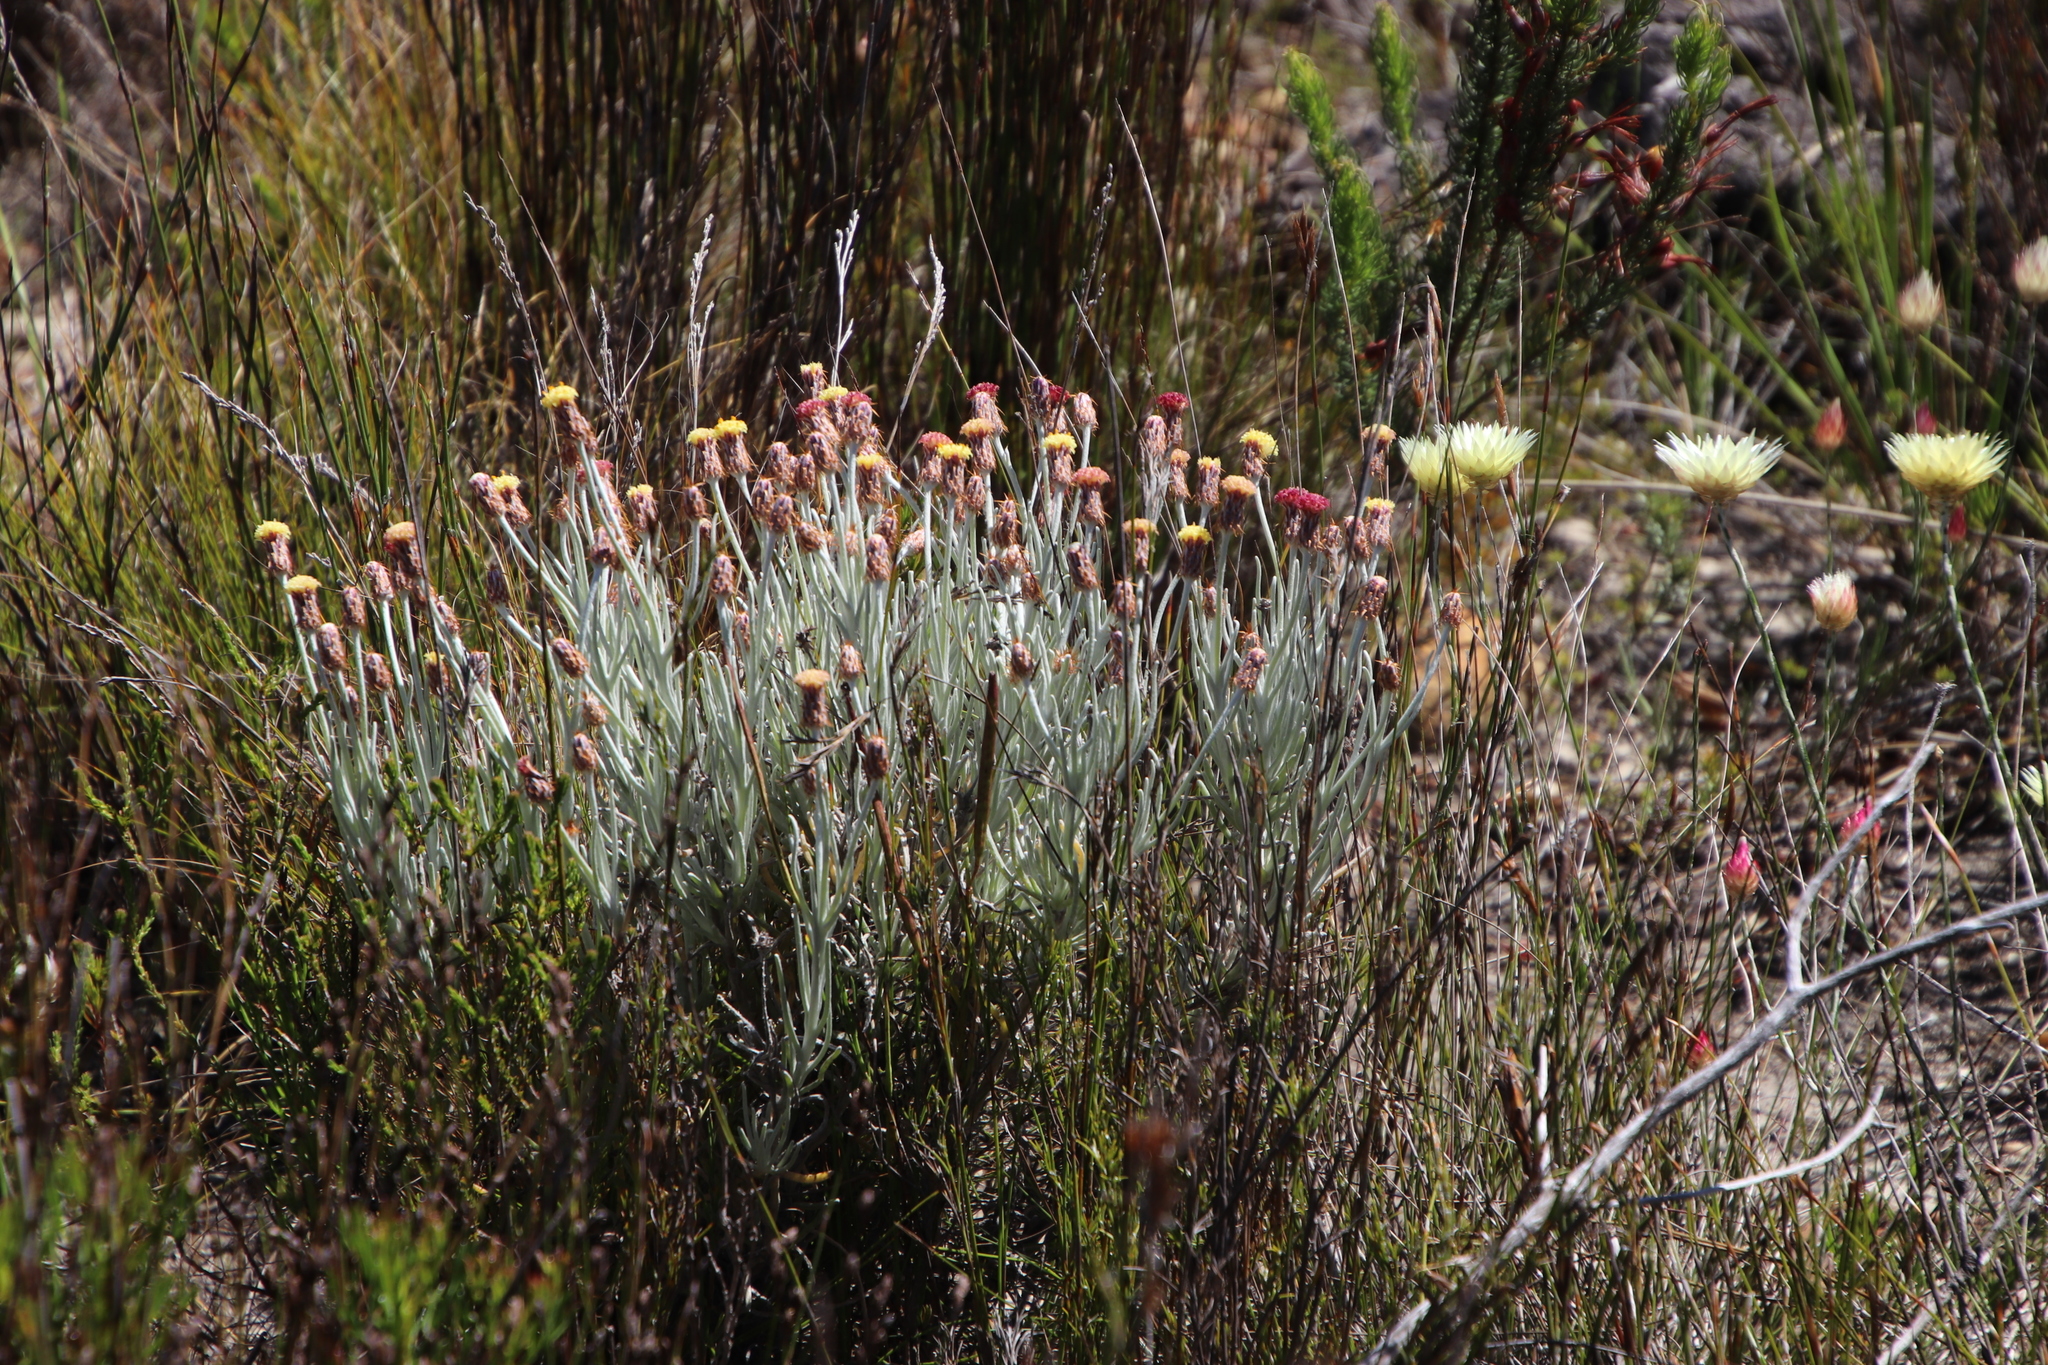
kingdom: Plantae
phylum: Tracheophyta
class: Magnoliopsida
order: Asterales
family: Asteraceae
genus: Syncarpha
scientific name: Syncarpha gnaphaloides
